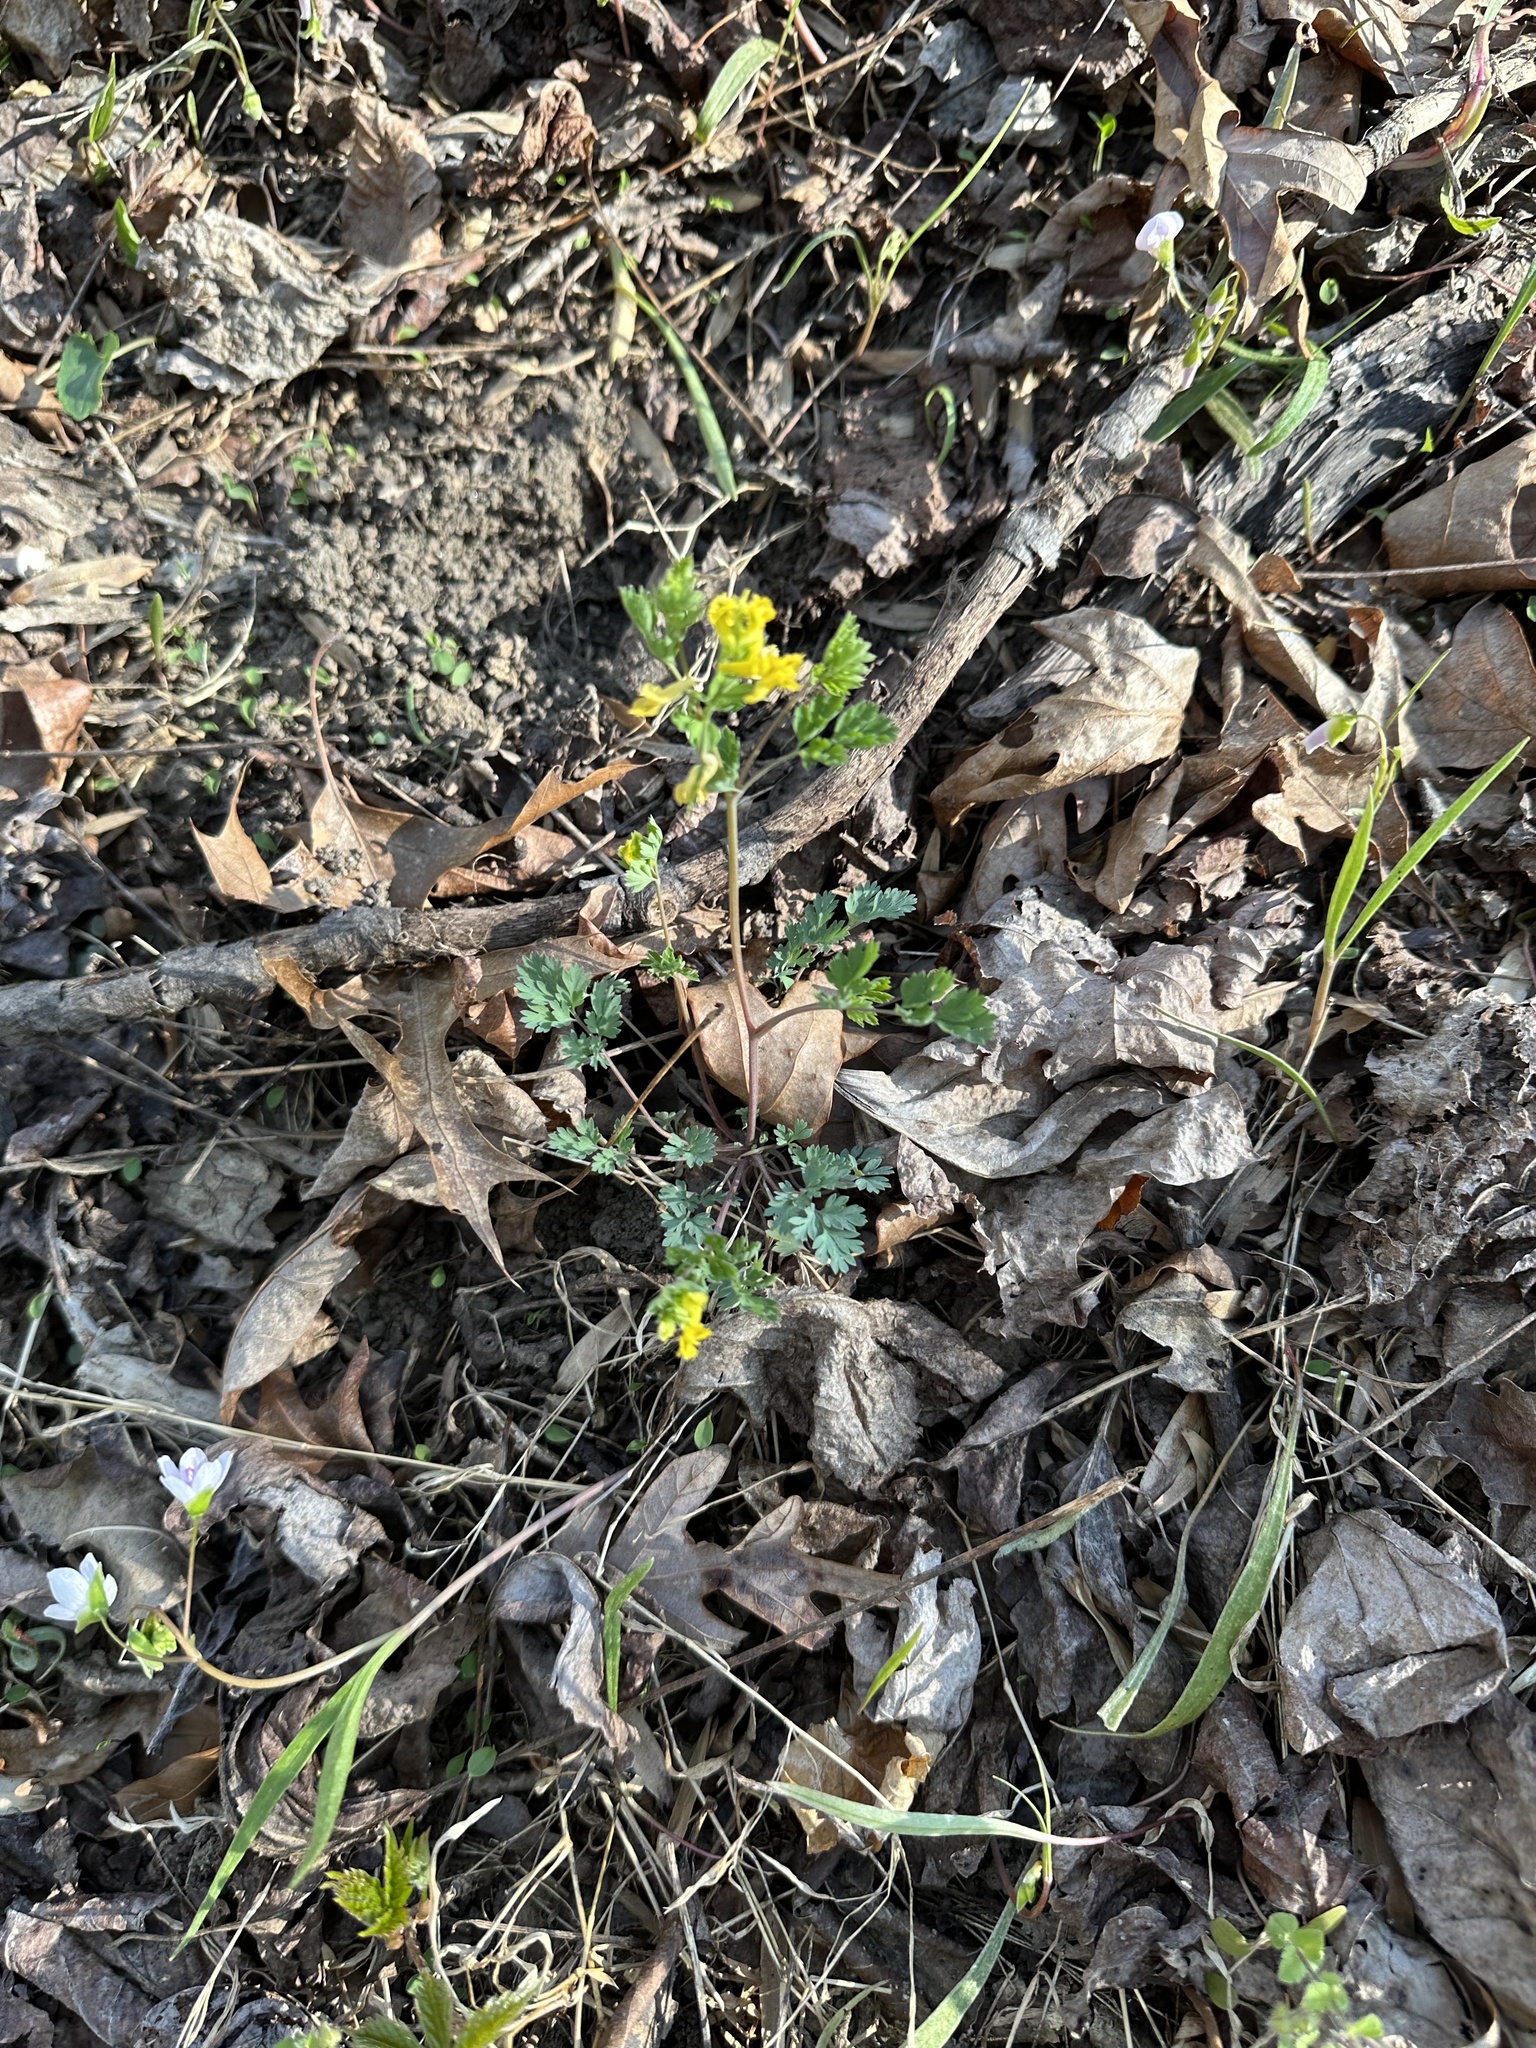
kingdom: Plantae
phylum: Tracheophyta
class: Magnoliopsida
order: Ranunculales
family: Papaveraceae
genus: Corydalis
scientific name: Corydalis flavula
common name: Yellow corydalis
